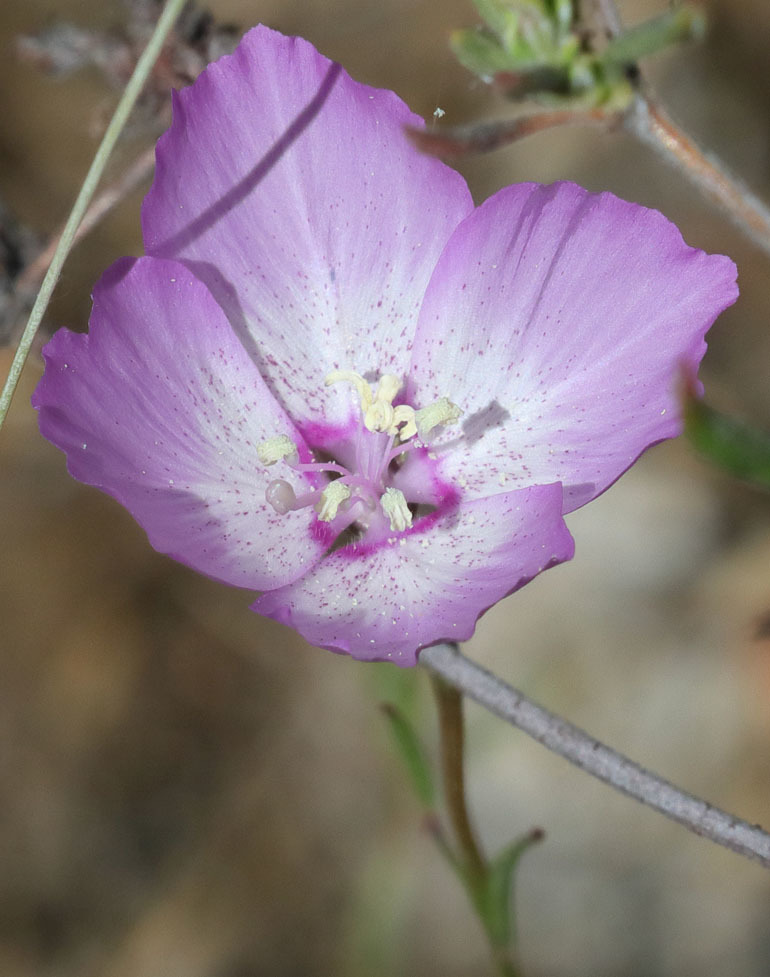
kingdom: Plantae
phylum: Tracheophyta
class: Magnoliopsida
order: Myrtales
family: Onagraceae
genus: Clarkia
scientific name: Clarkia cylindrica
